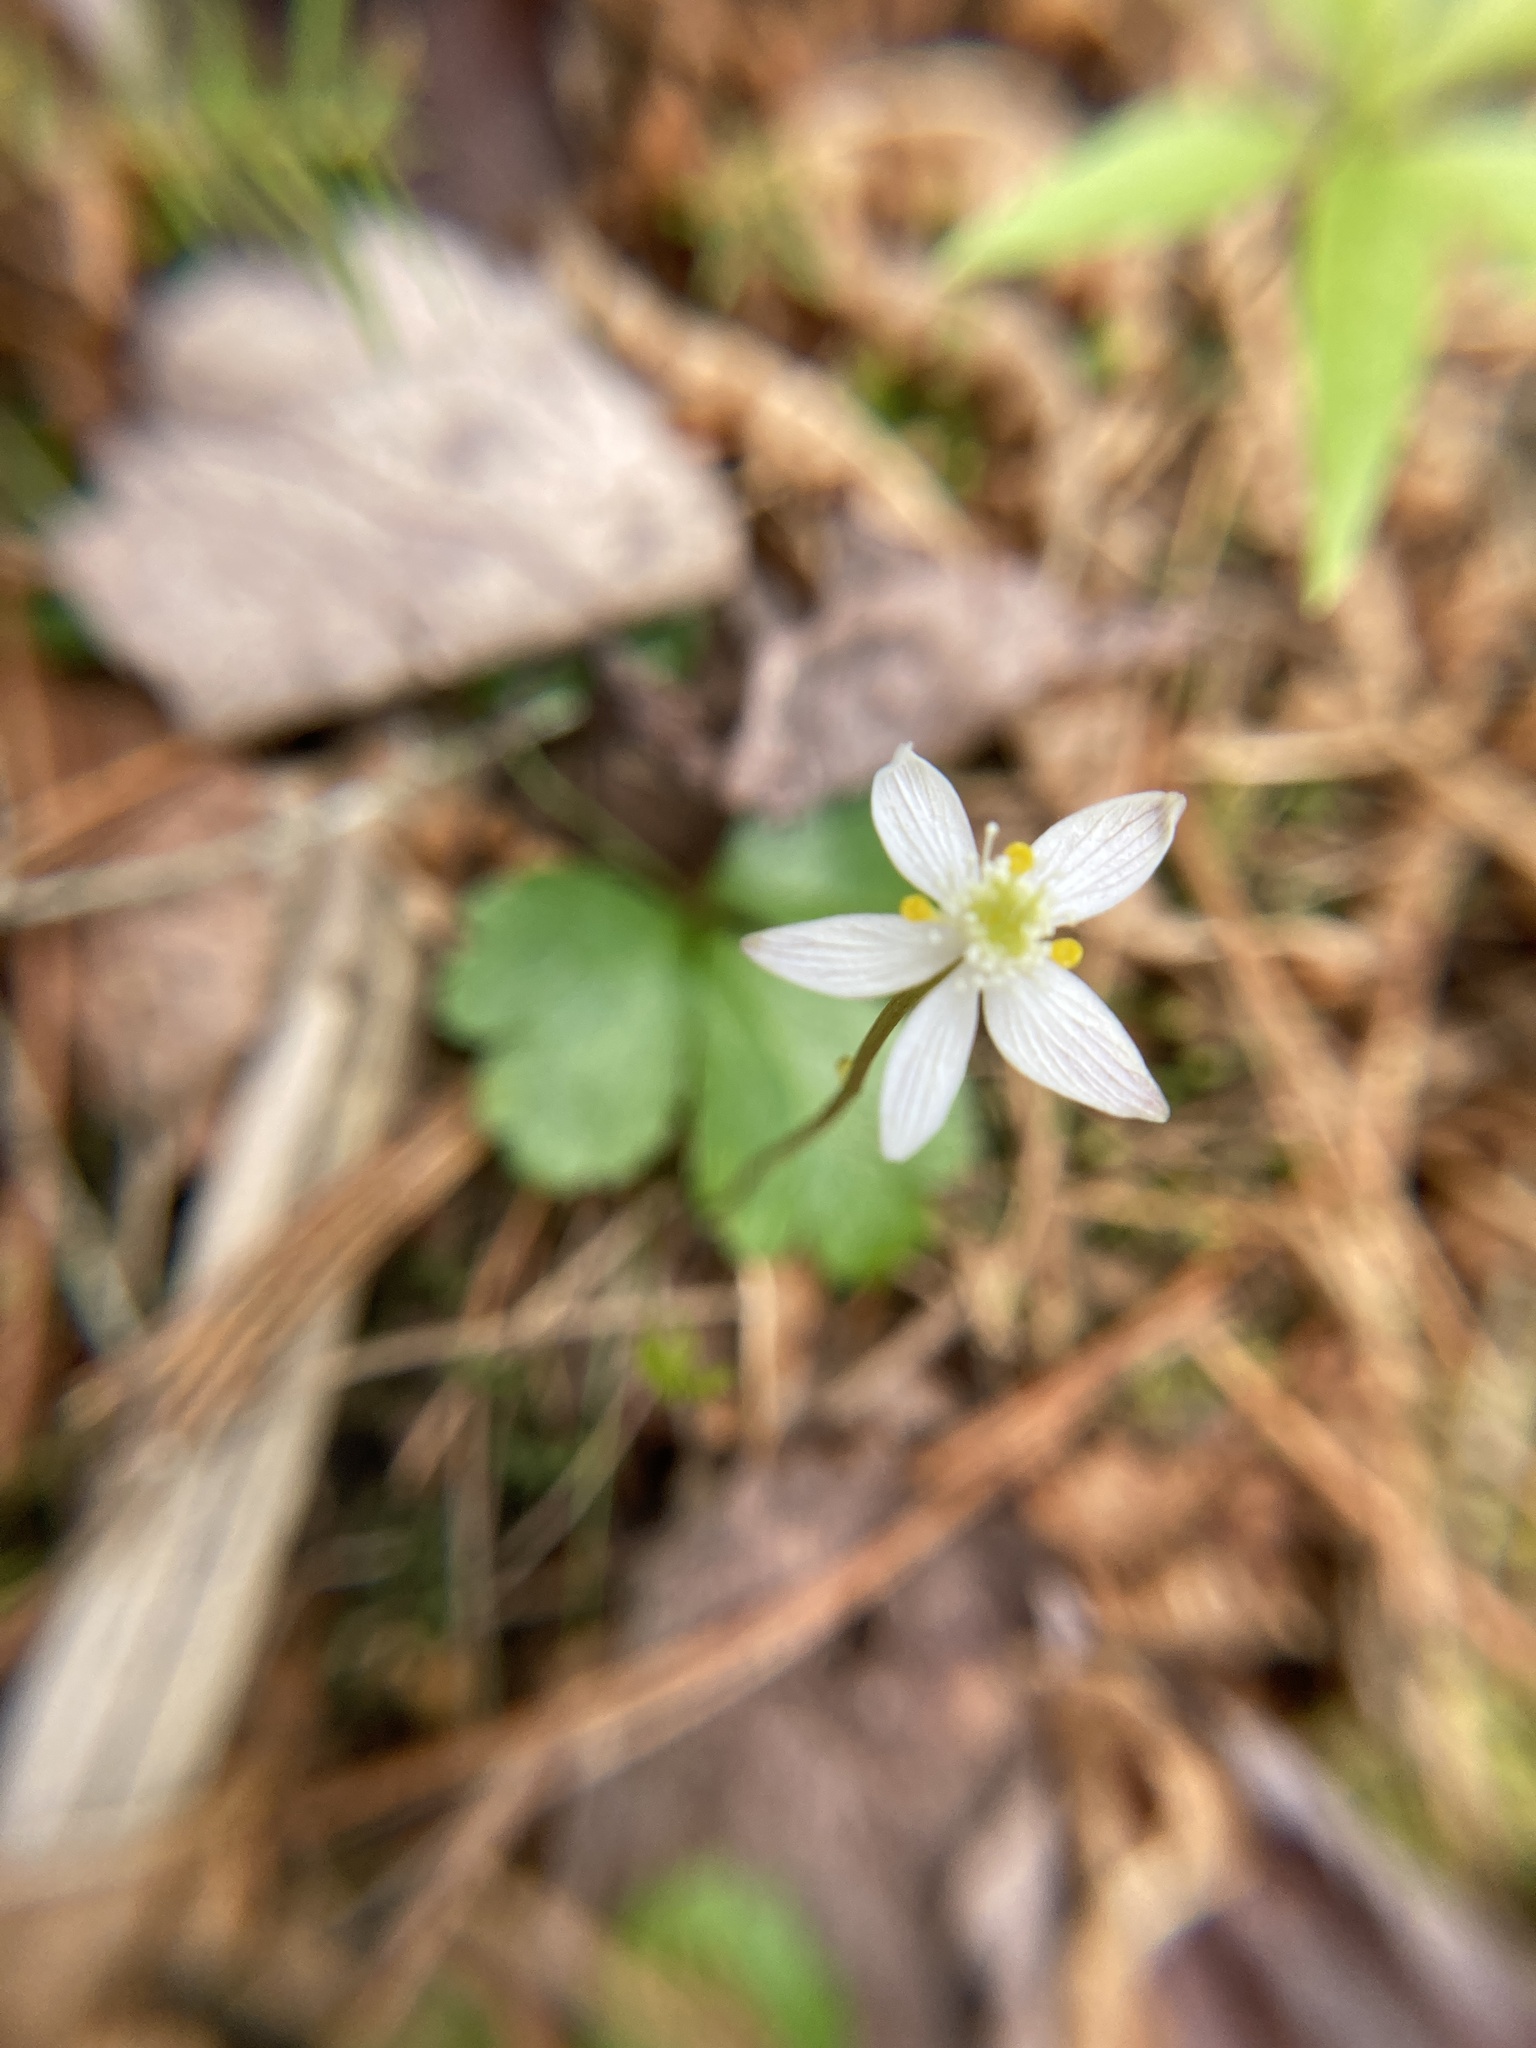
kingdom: Plantae
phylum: Tracheophyta
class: Magnoliopsida
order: Ranunculales
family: Ranunculaceae
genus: Coptis
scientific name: Coptis trifolia
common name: Canker-root
